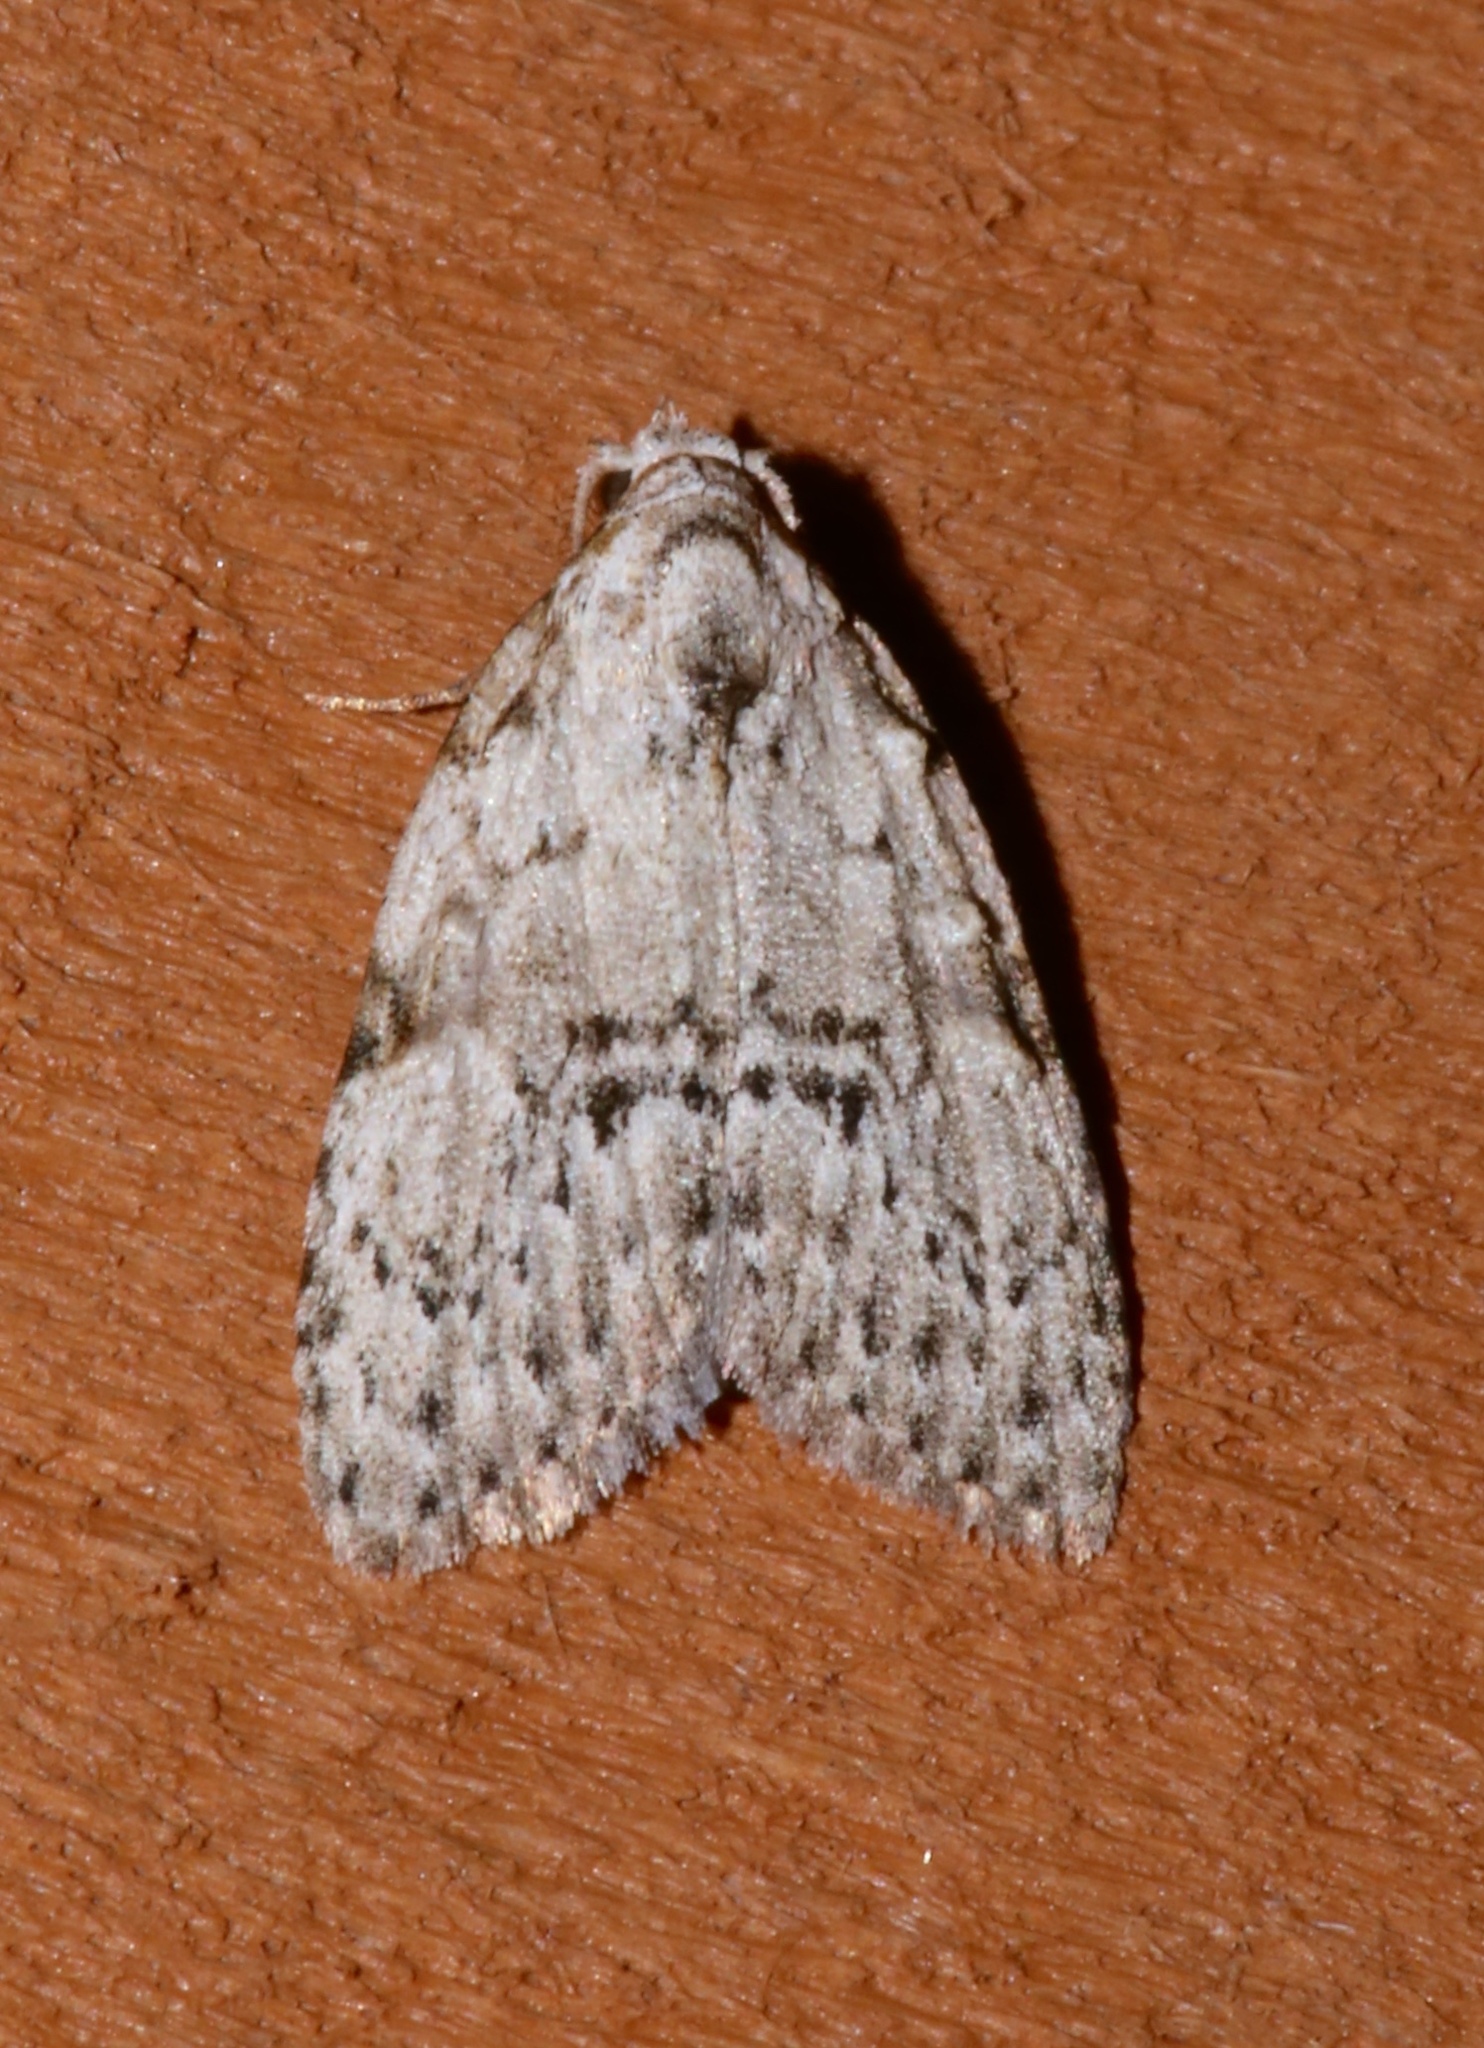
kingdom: Animalia
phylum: Arthropoda
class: Insecta
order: Lepidoptera
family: Nolidae
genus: Meganola
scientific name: Meganola minuscula
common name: Confused meganola moth
